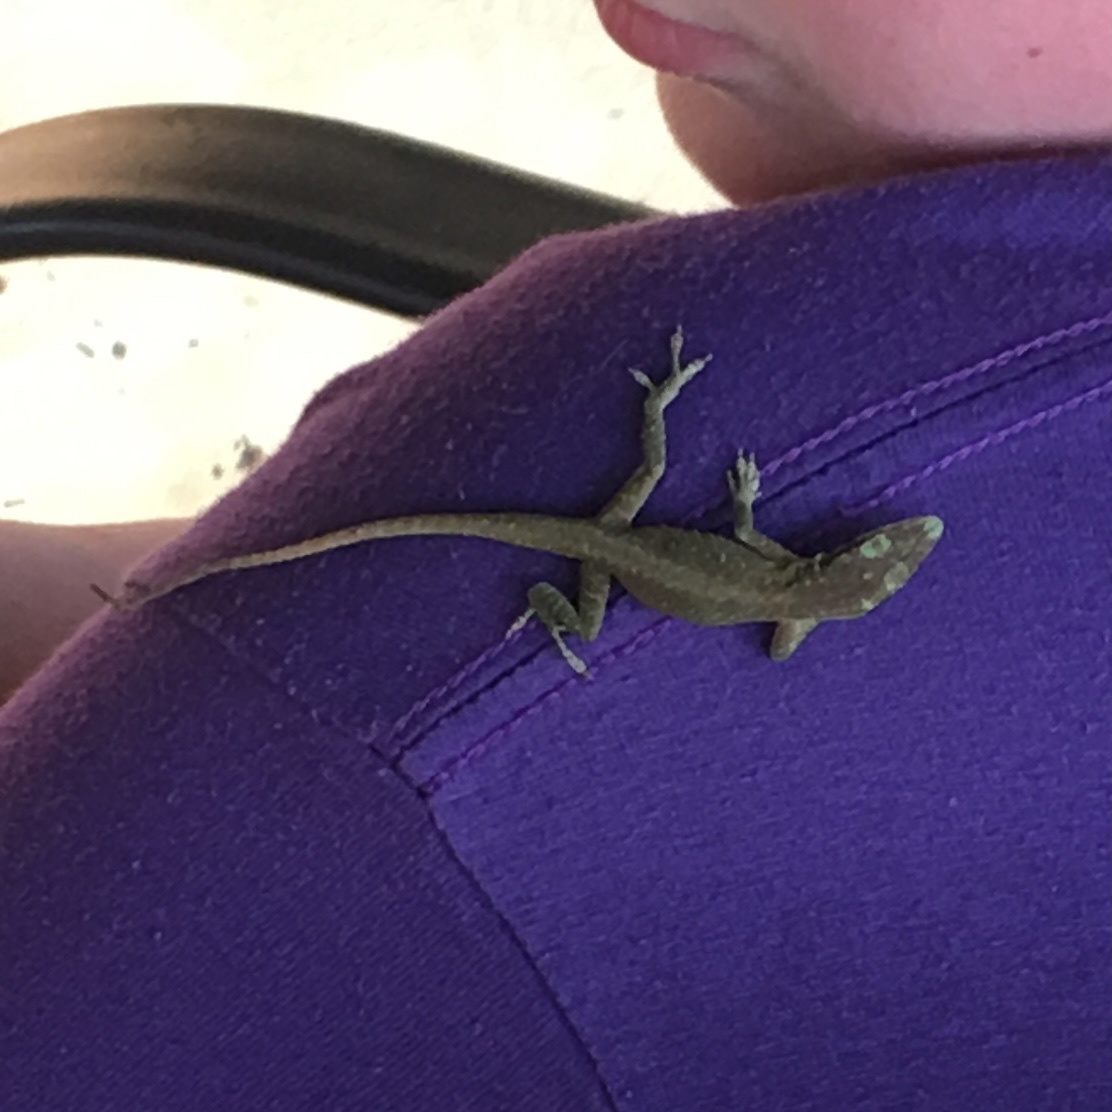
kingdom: Animalia
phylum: Chordata
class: Squamata
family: Dactyloidae
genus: Anolis
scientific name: Anolis carolinensis
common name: Green anole
